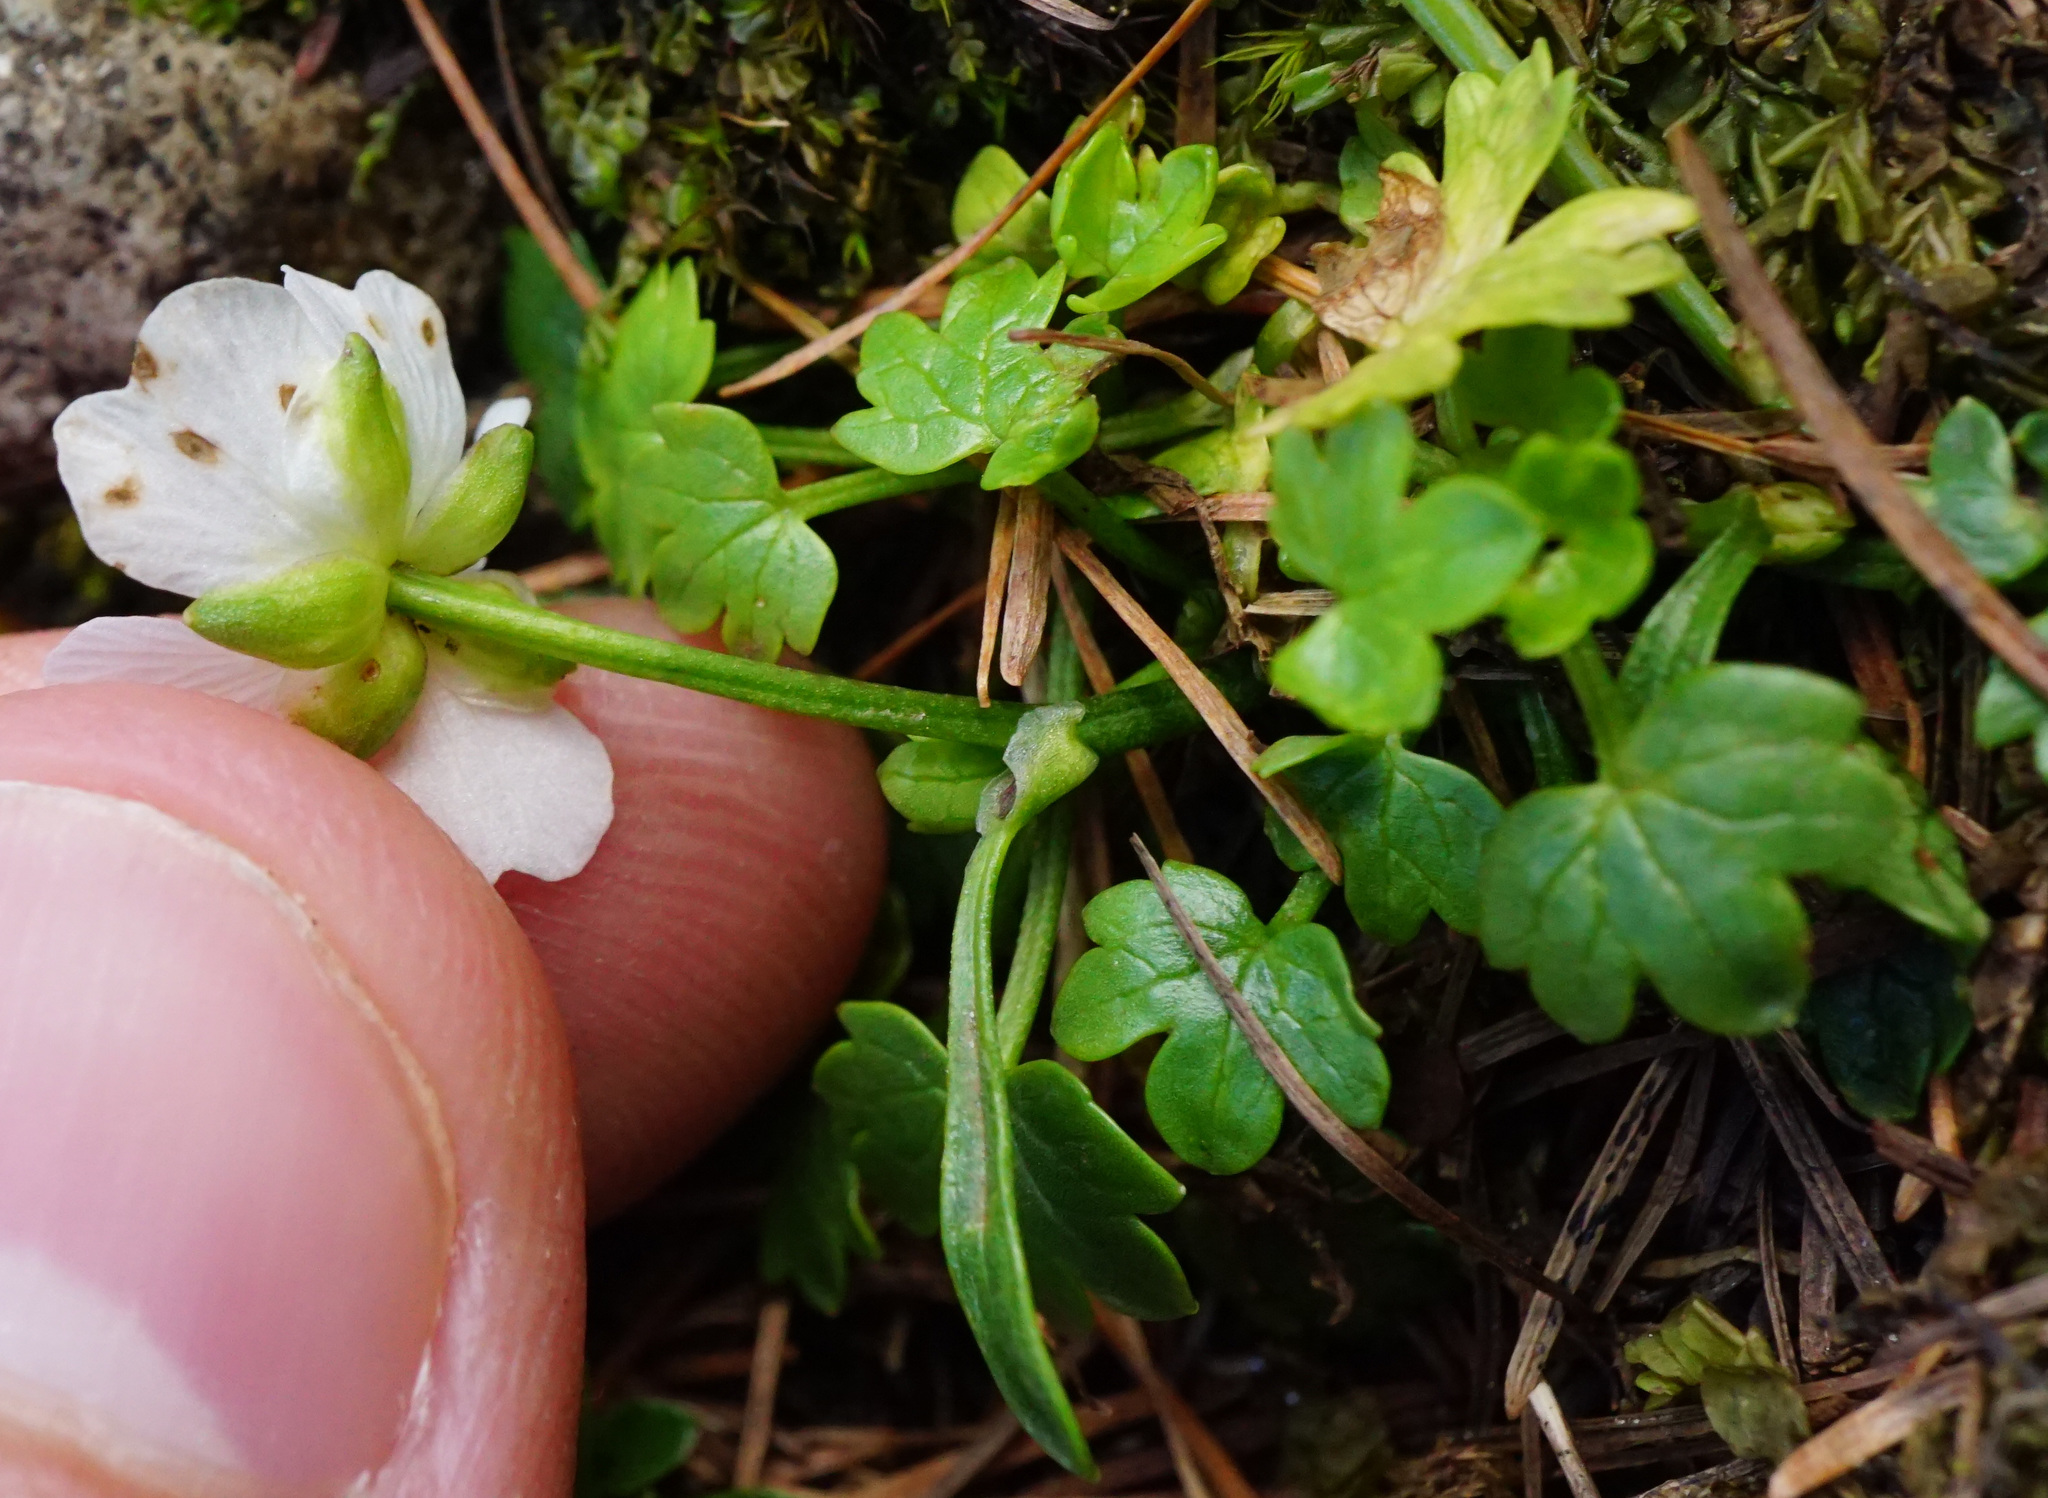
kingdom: Plantae
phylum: Tracheophyta
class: Magnoliopsida
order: Ranunculales
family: Ranunculaceae
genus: Ranunculus
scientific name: Ranunculus alpestris
